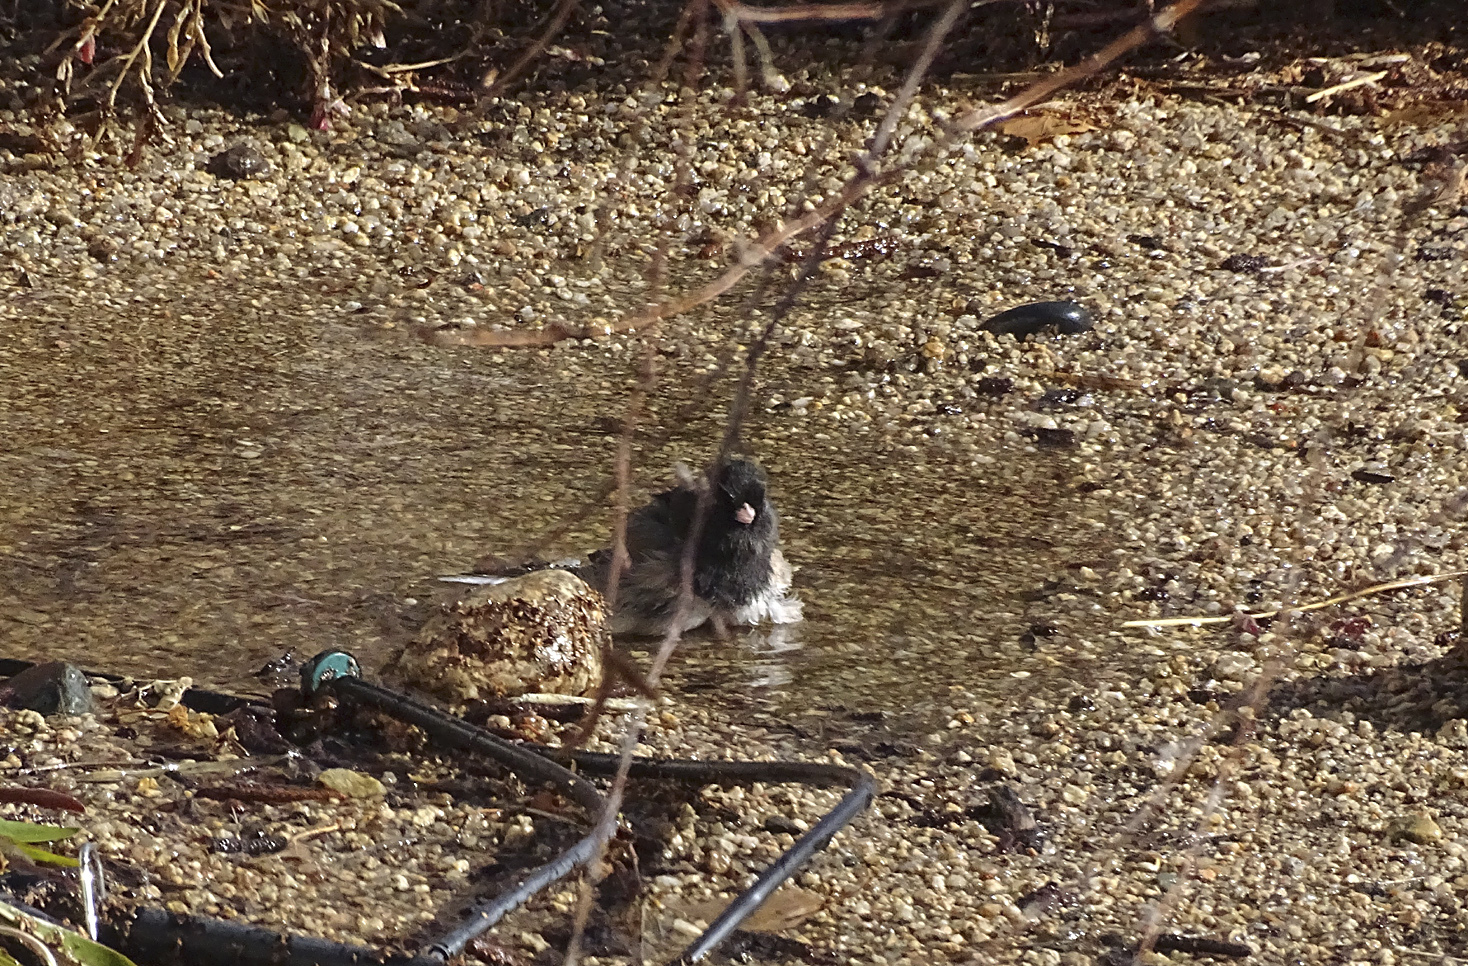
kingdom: Animalia
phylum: Chordata
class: Aves
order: Passeriformes
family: Passerellidae
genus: Junco
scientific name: Junco hyemalis
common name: Dark-eyed junco
